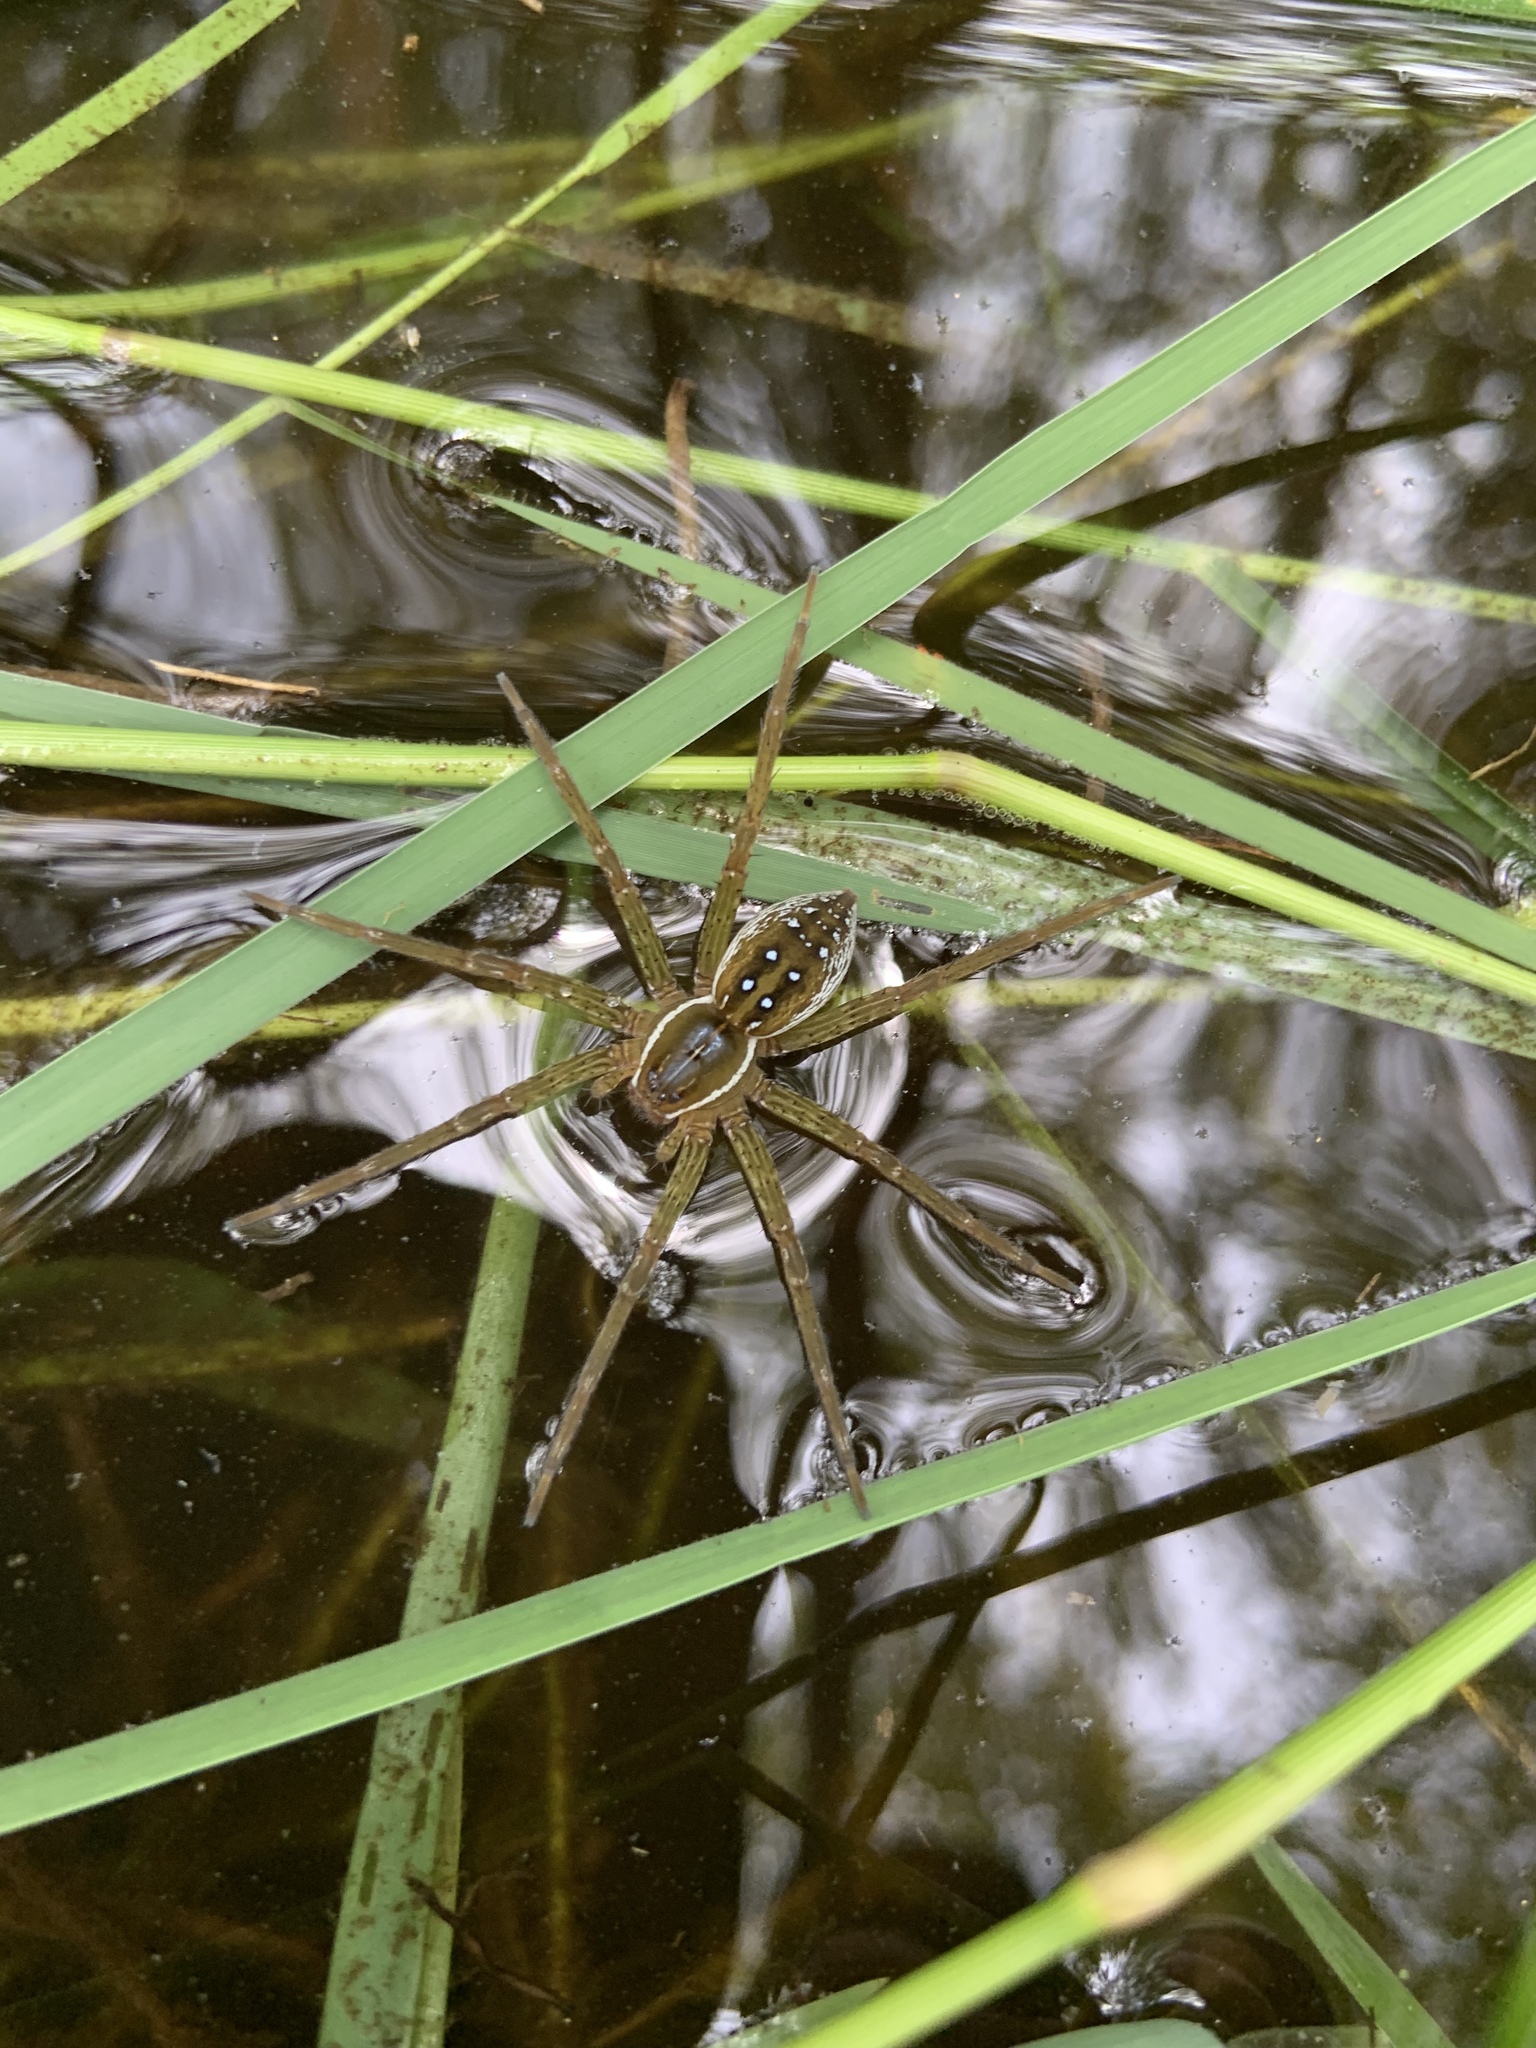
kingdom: Animalia
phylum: Arthropoda
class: Arachnida
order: Araneae
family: Pisauridae
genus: Dolomedes
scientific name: Dolomedes triton
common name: Six-spotted fishing spider
